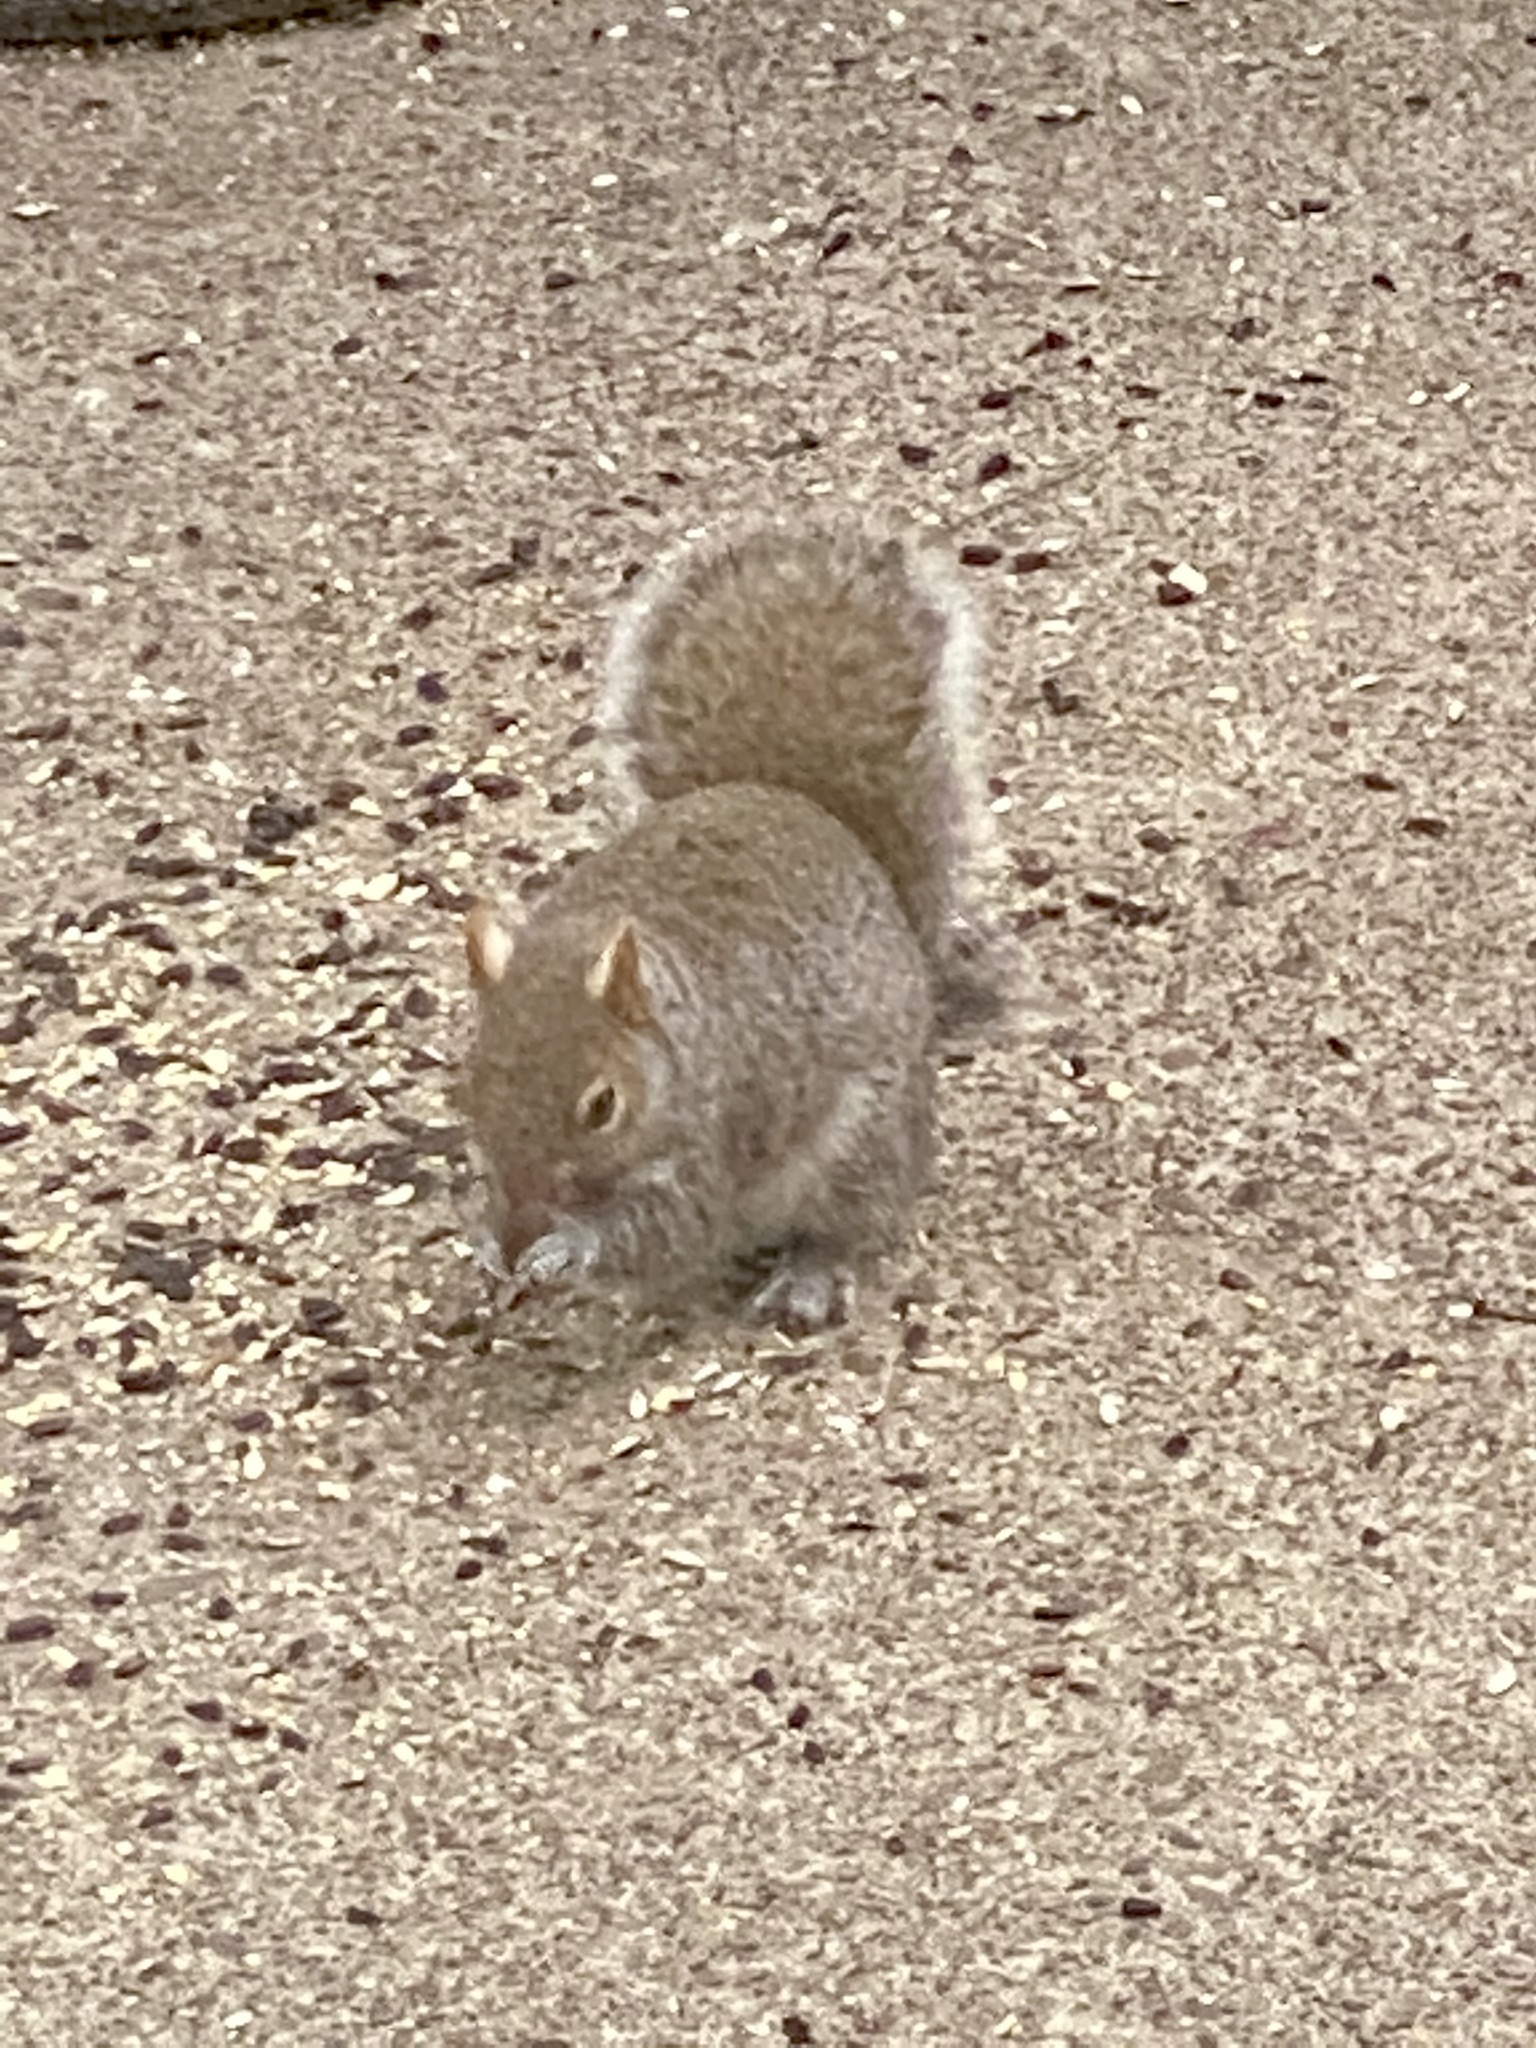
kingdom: Animalia
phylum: Chordata
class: Mammalia
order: Rodentia
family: Sciuridae
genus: Sciurus
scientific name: Sciurus carolinensis
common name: Eastern gray squirrel
